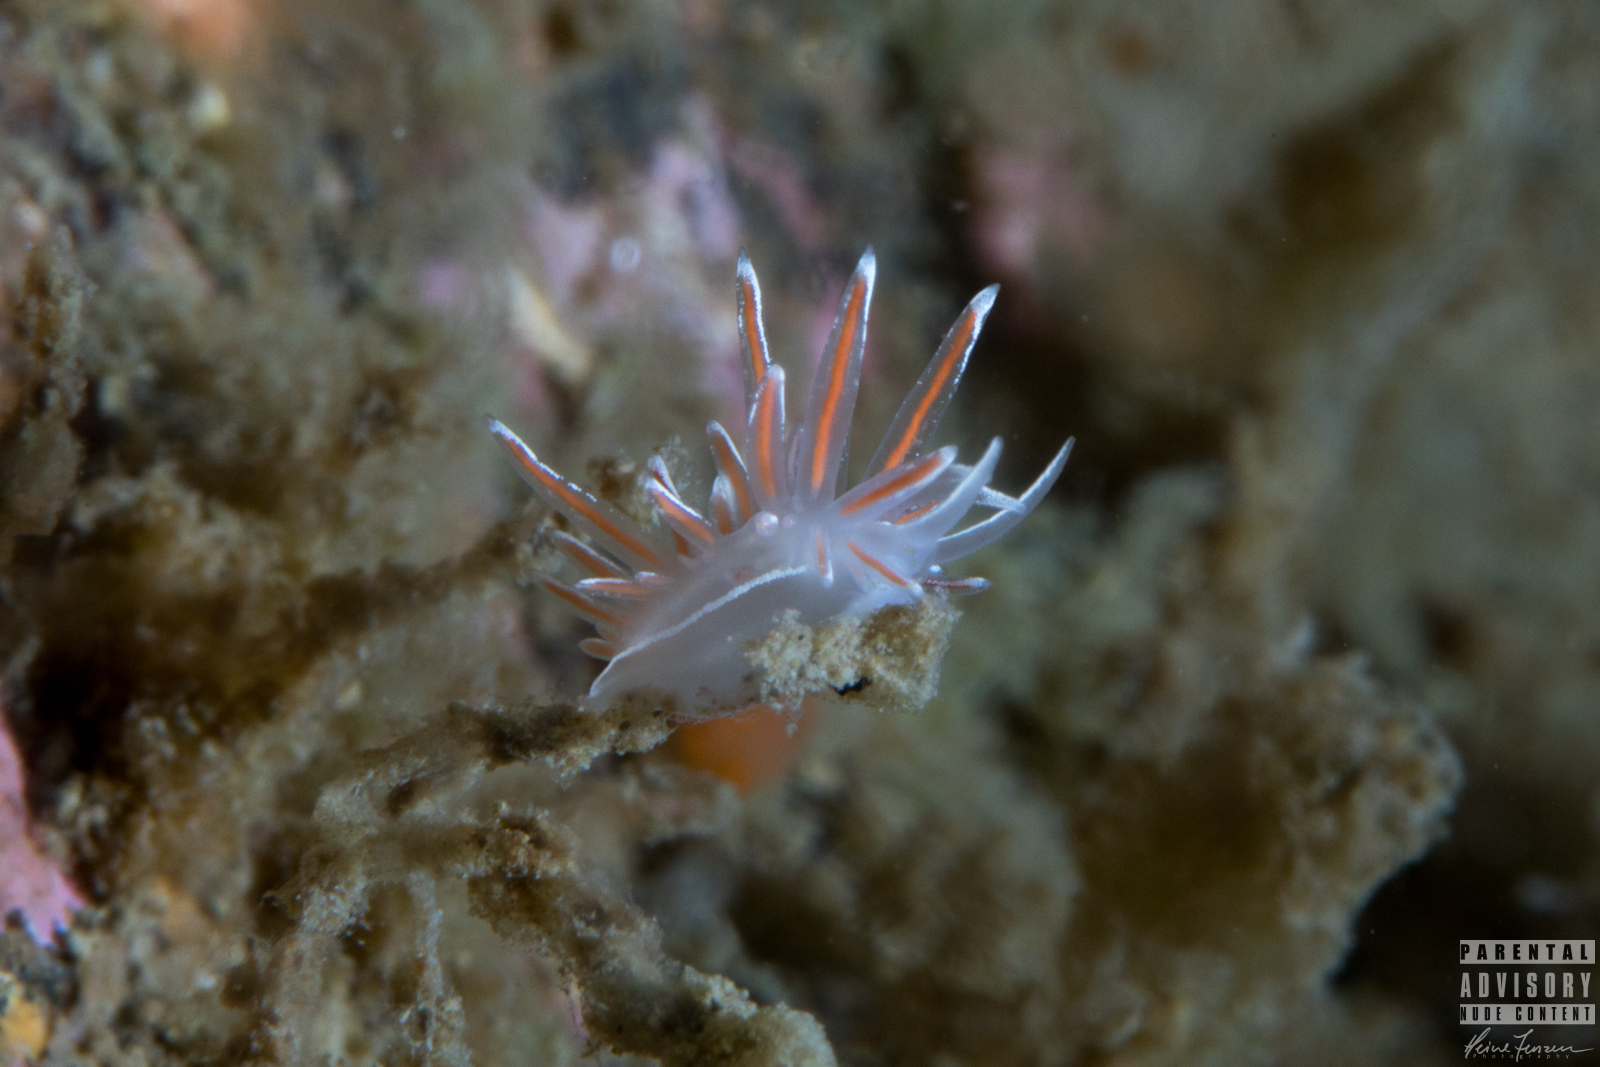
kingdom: Animalia
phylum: Mollusca
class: Gastropoda
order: Nudibranchia
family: Coryphellidae
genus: Coryphella
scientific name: Coryphella lineata
